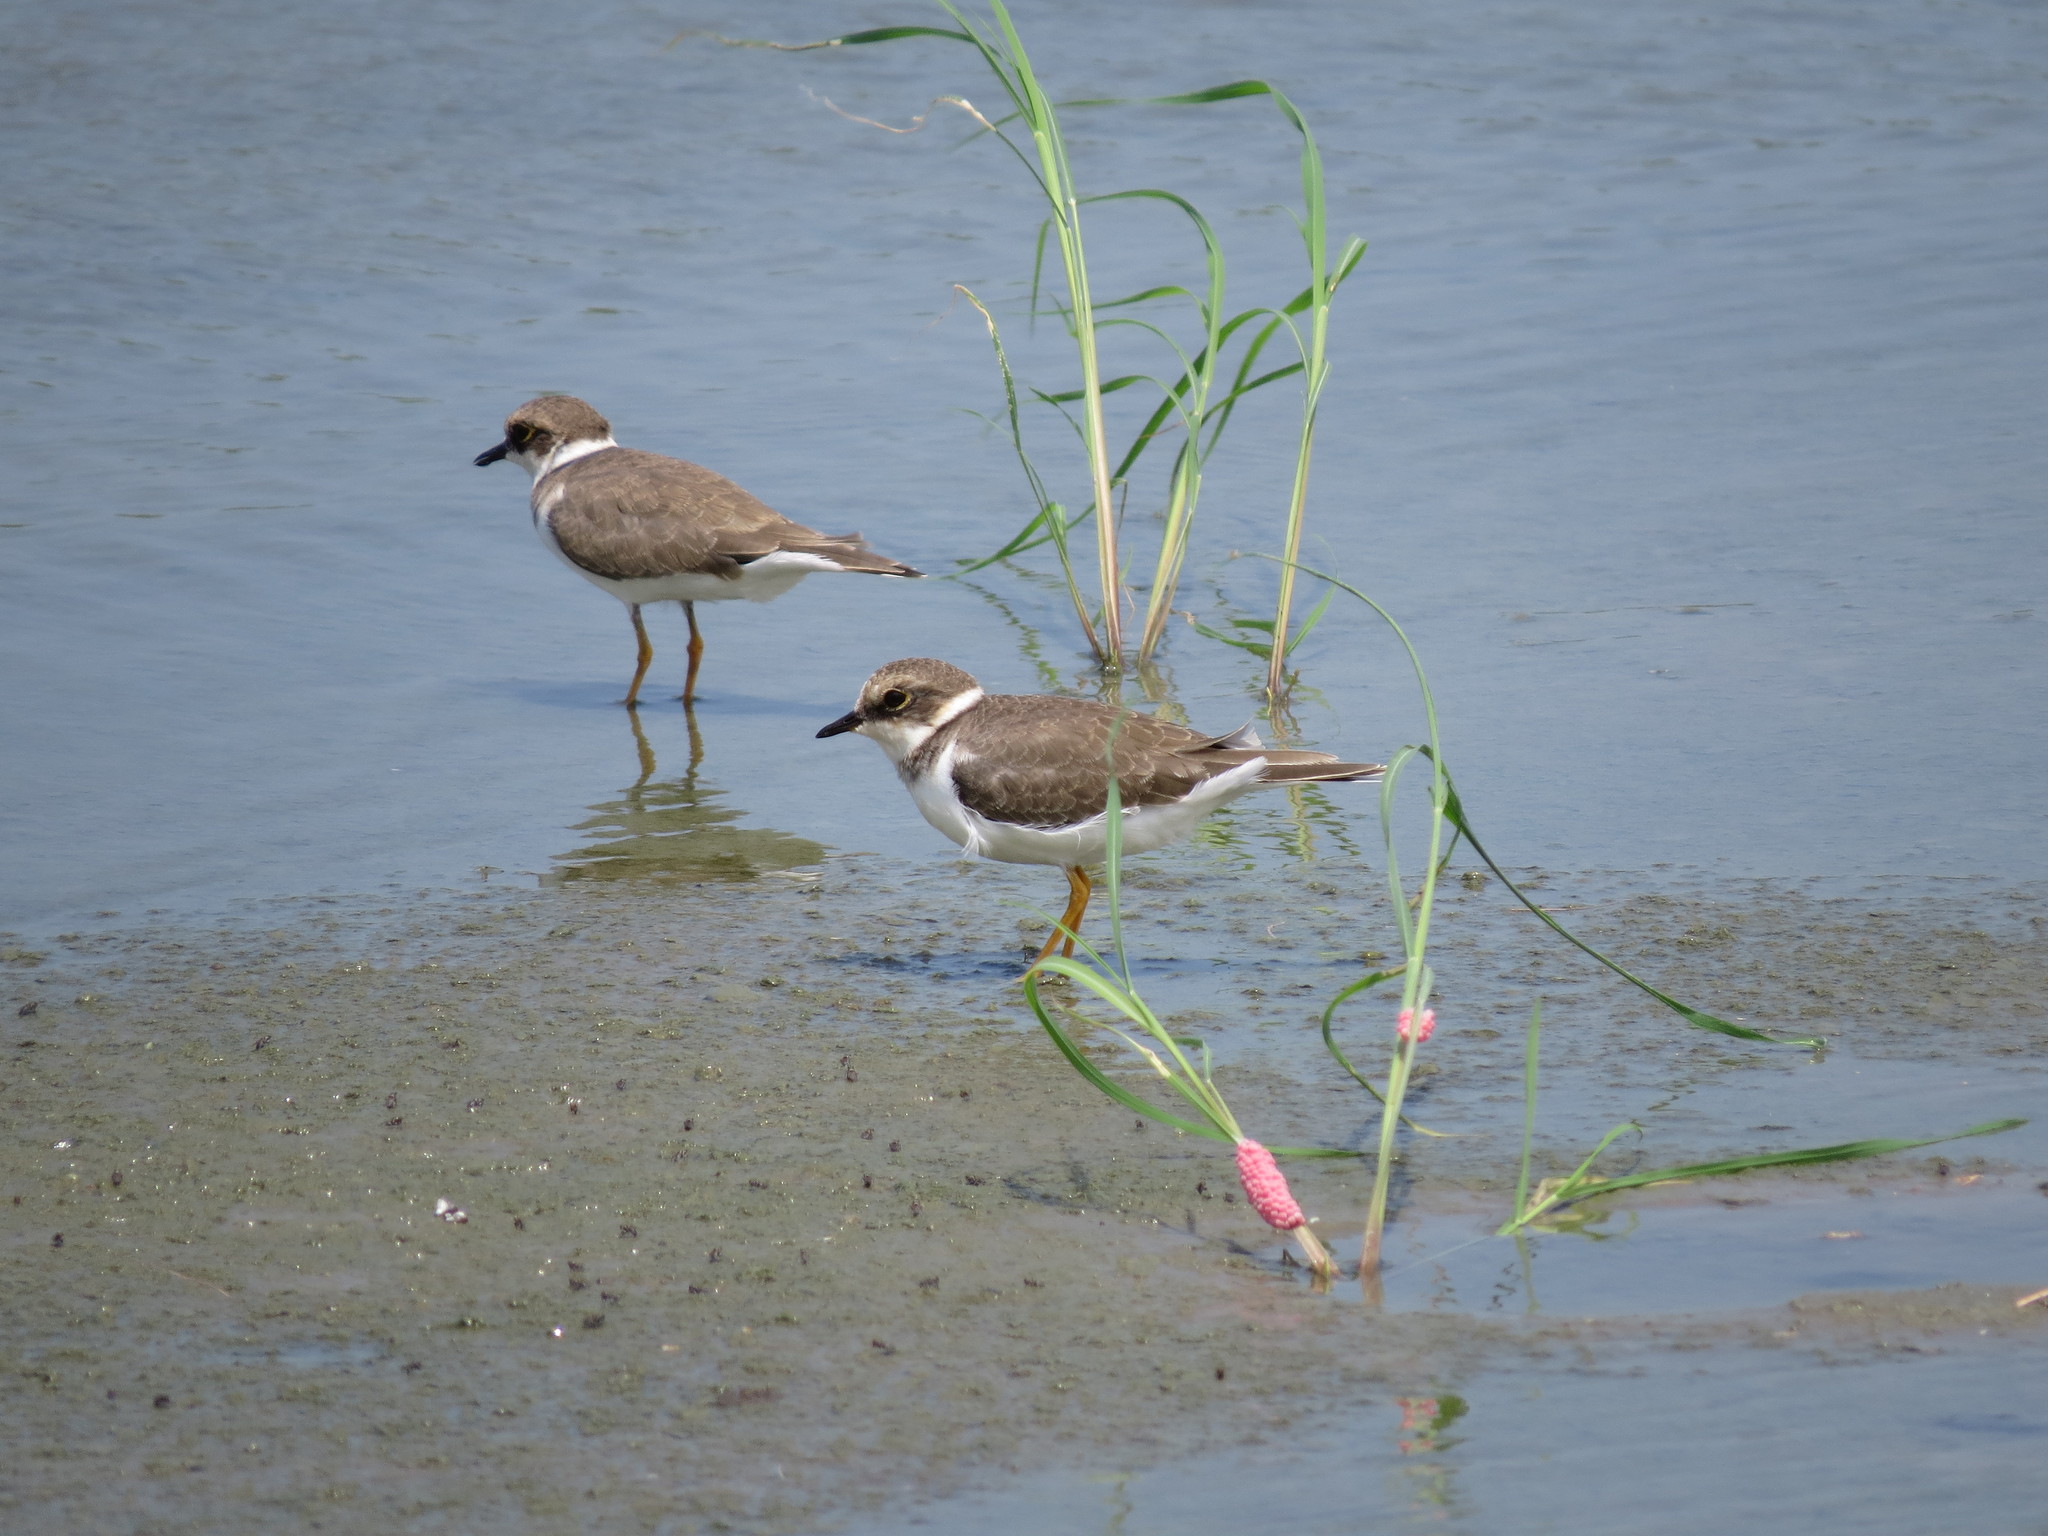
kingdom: Animalia
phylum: Chordata
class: Aves
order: Charadriiformes
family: Charadriidae
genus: Charadrius
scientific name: Charadrius dubius
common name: Little ringed plover
